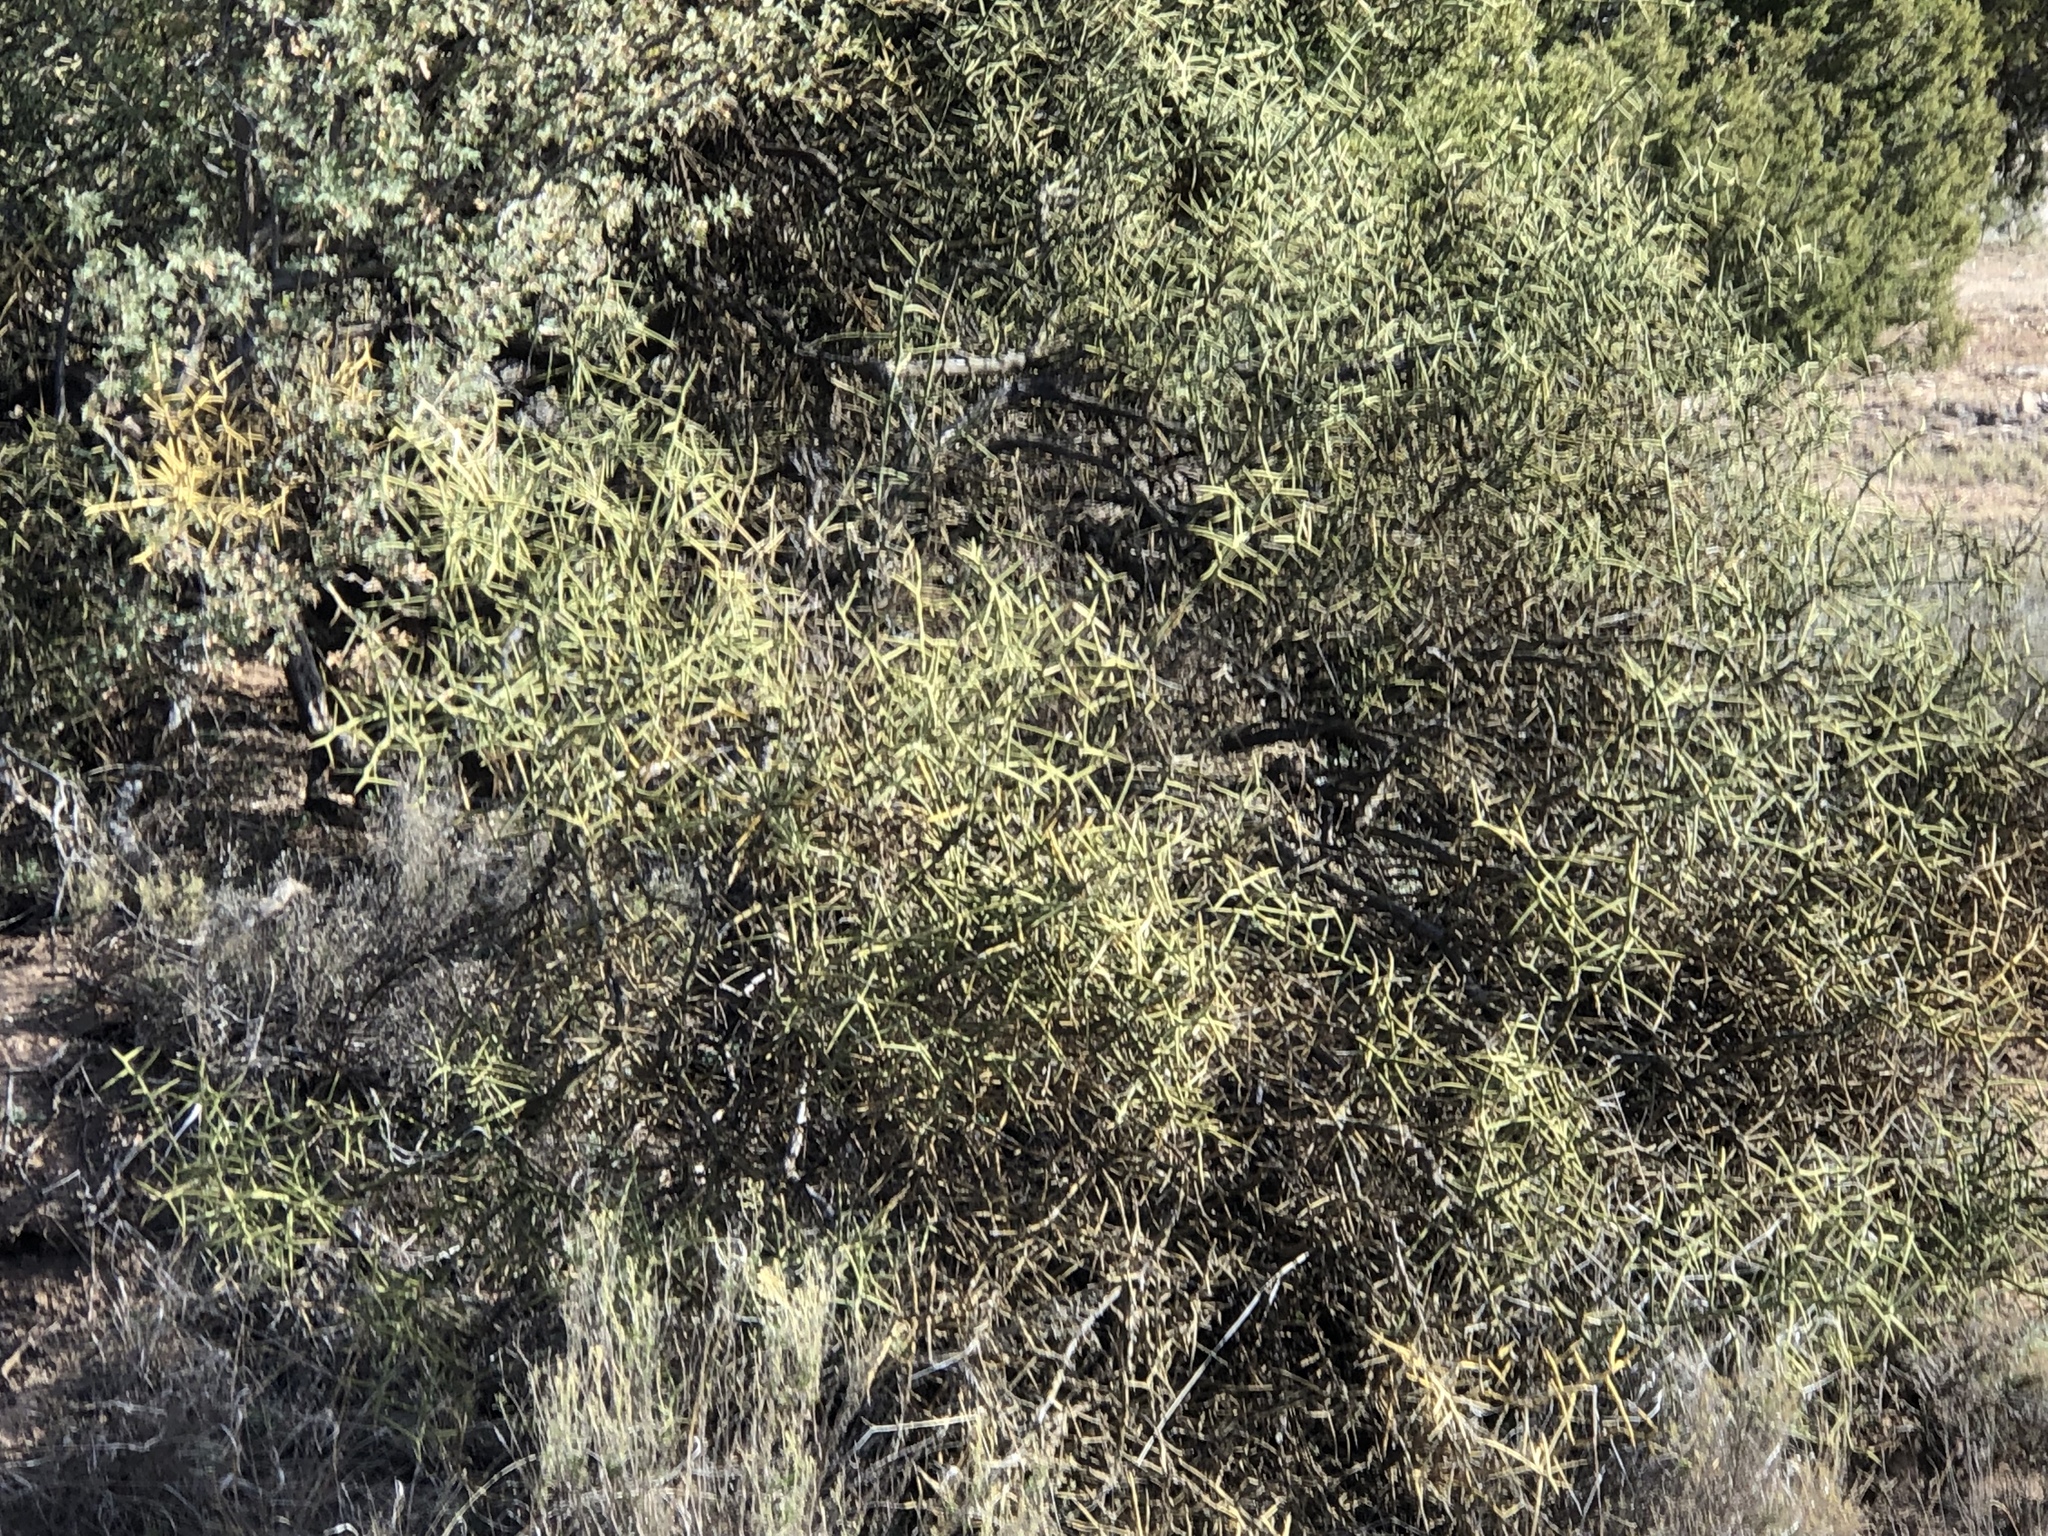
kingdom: Plantae
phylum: Tracheophyta
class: Magnoliopsida
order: Brassicales
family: Koeberliniaceae
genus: Koeberlinia
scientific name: Koeberlinia spinosa
